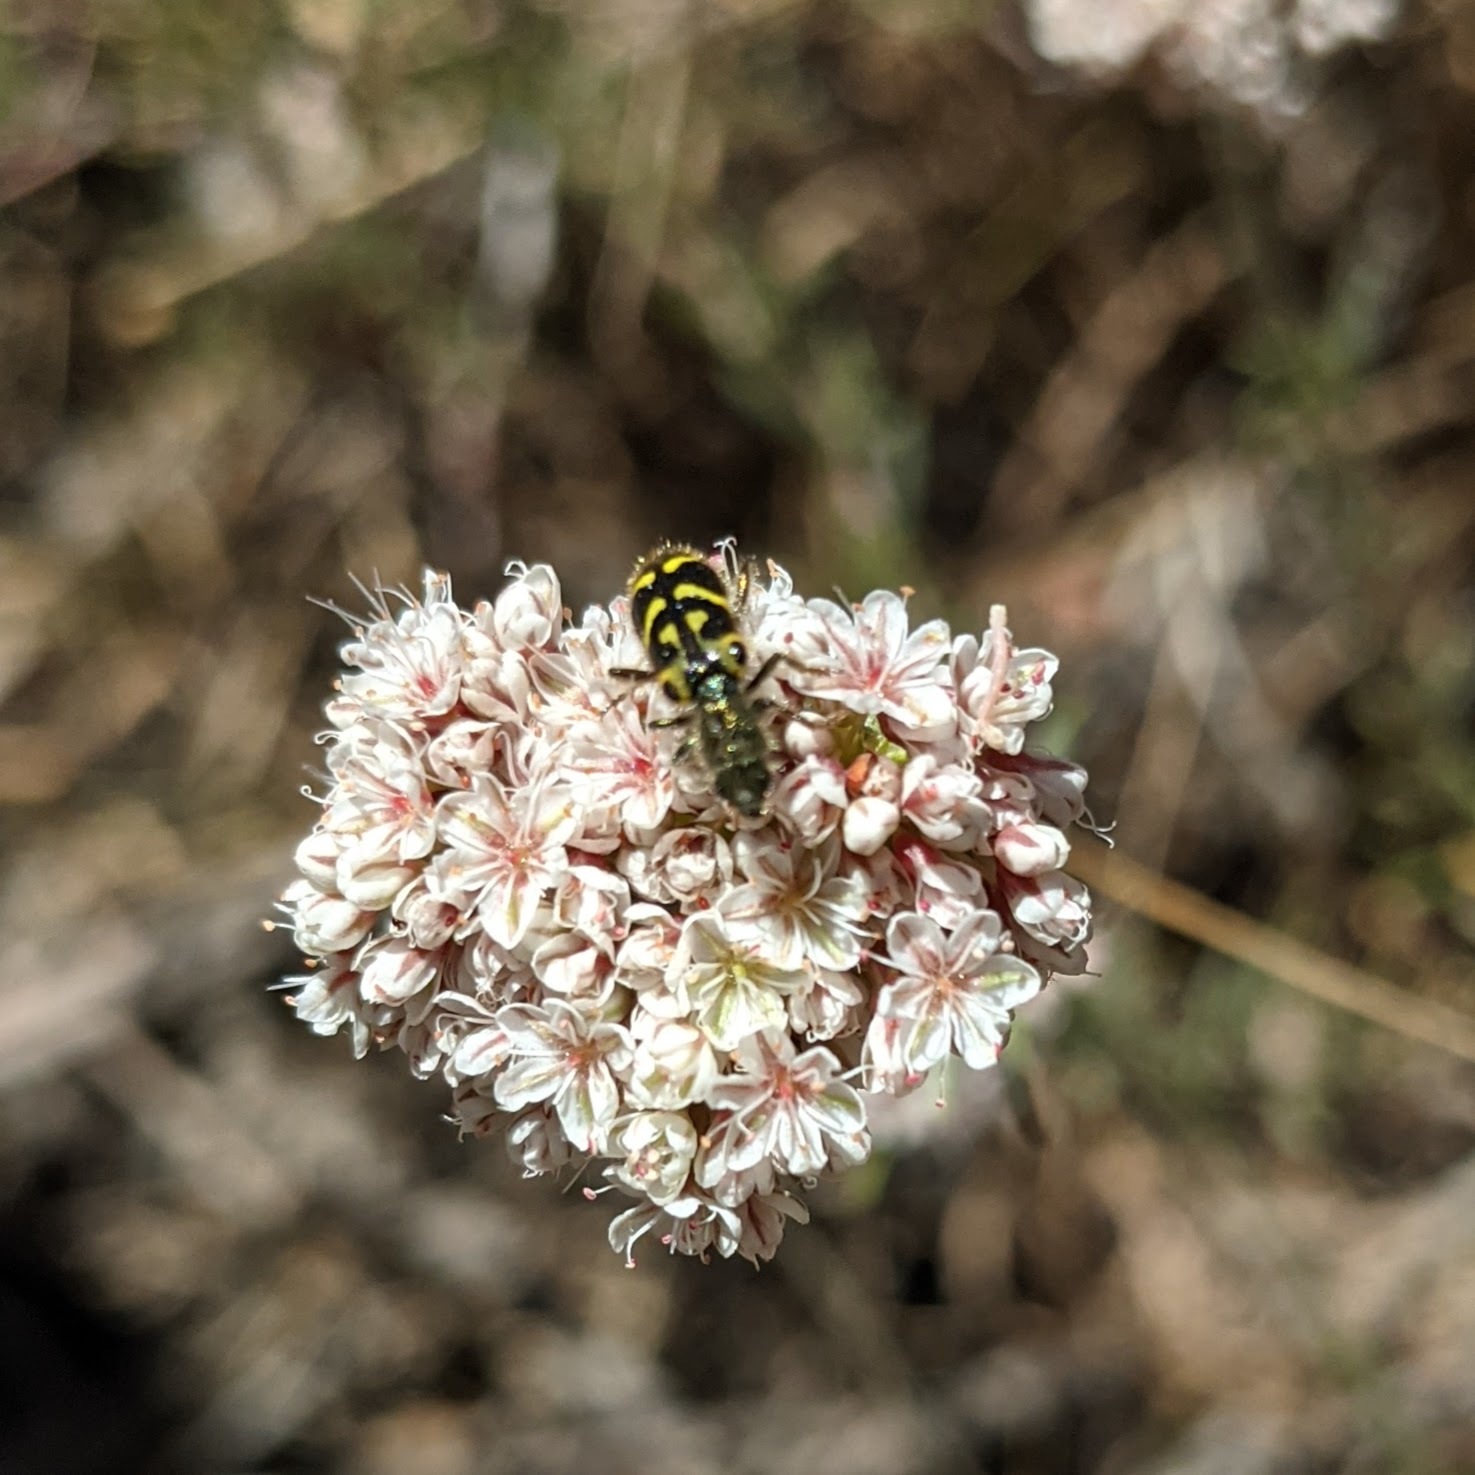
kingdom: Animalia
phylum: Arthropoda
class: Insecta
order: Coleoptera
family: Cleridae
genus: Trichodes
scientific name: Trichodes ornatus
